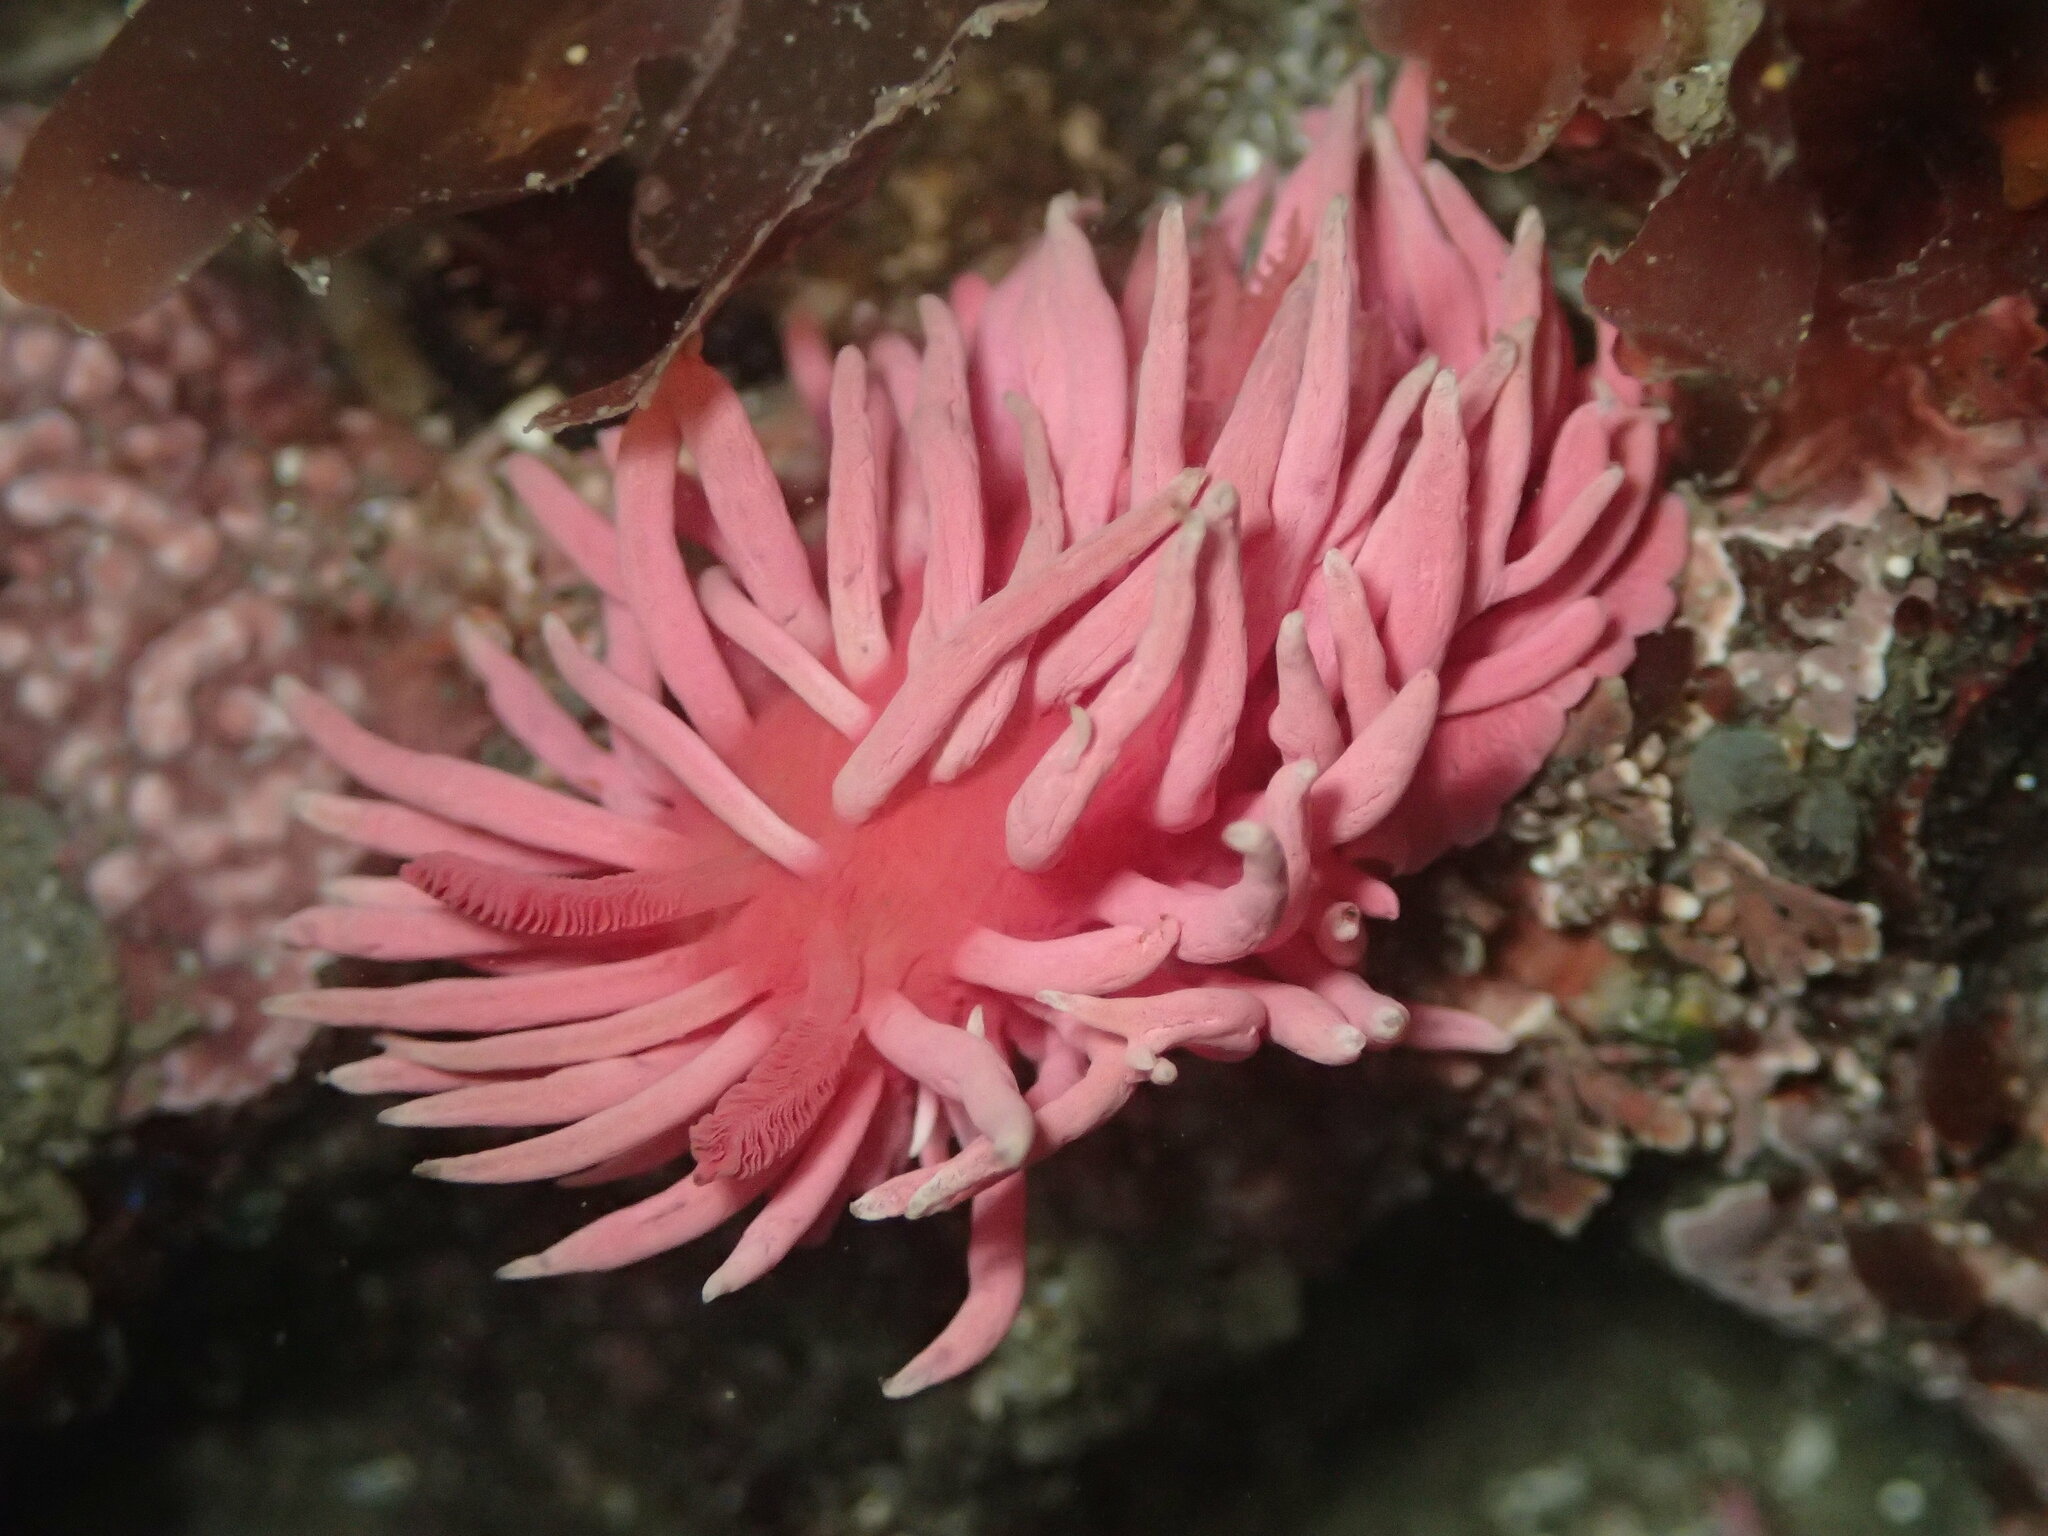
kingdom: Animalia
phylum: Mollusca
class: Gastropoda
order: Nudibranchia
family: Goniodorididae
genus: Okenia
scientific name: Okenia
